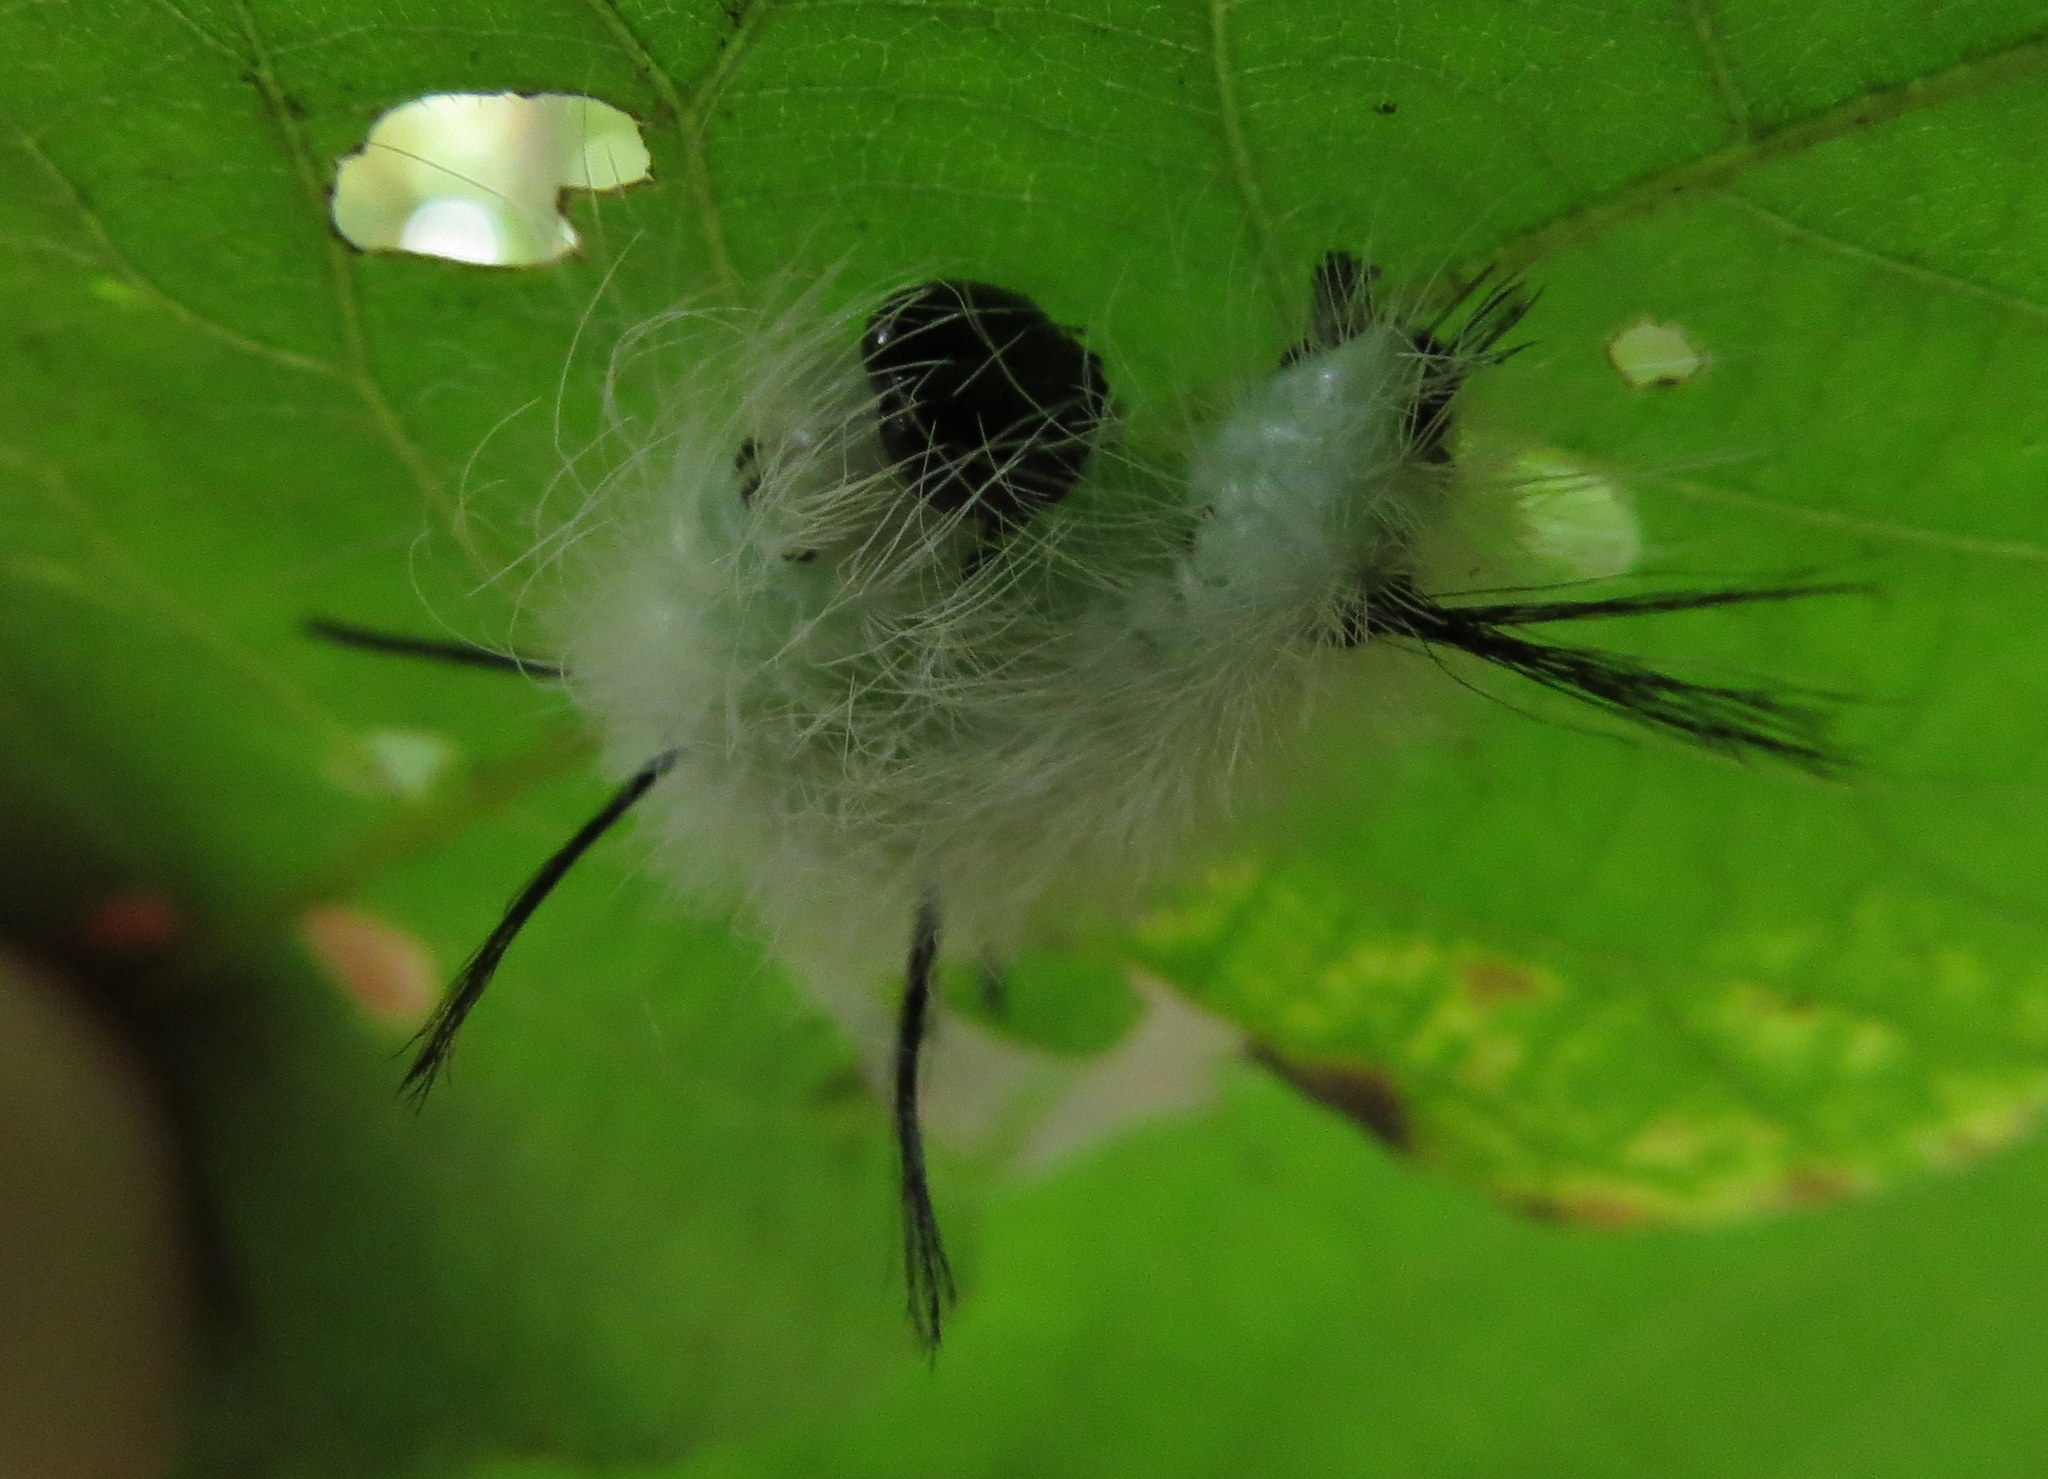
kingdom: Animalia
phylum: Arthropoda
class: Insecta
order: Lepidoptera
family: Noctuidae
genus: Acronicta
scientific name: Acronicta americana
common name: American dagger
